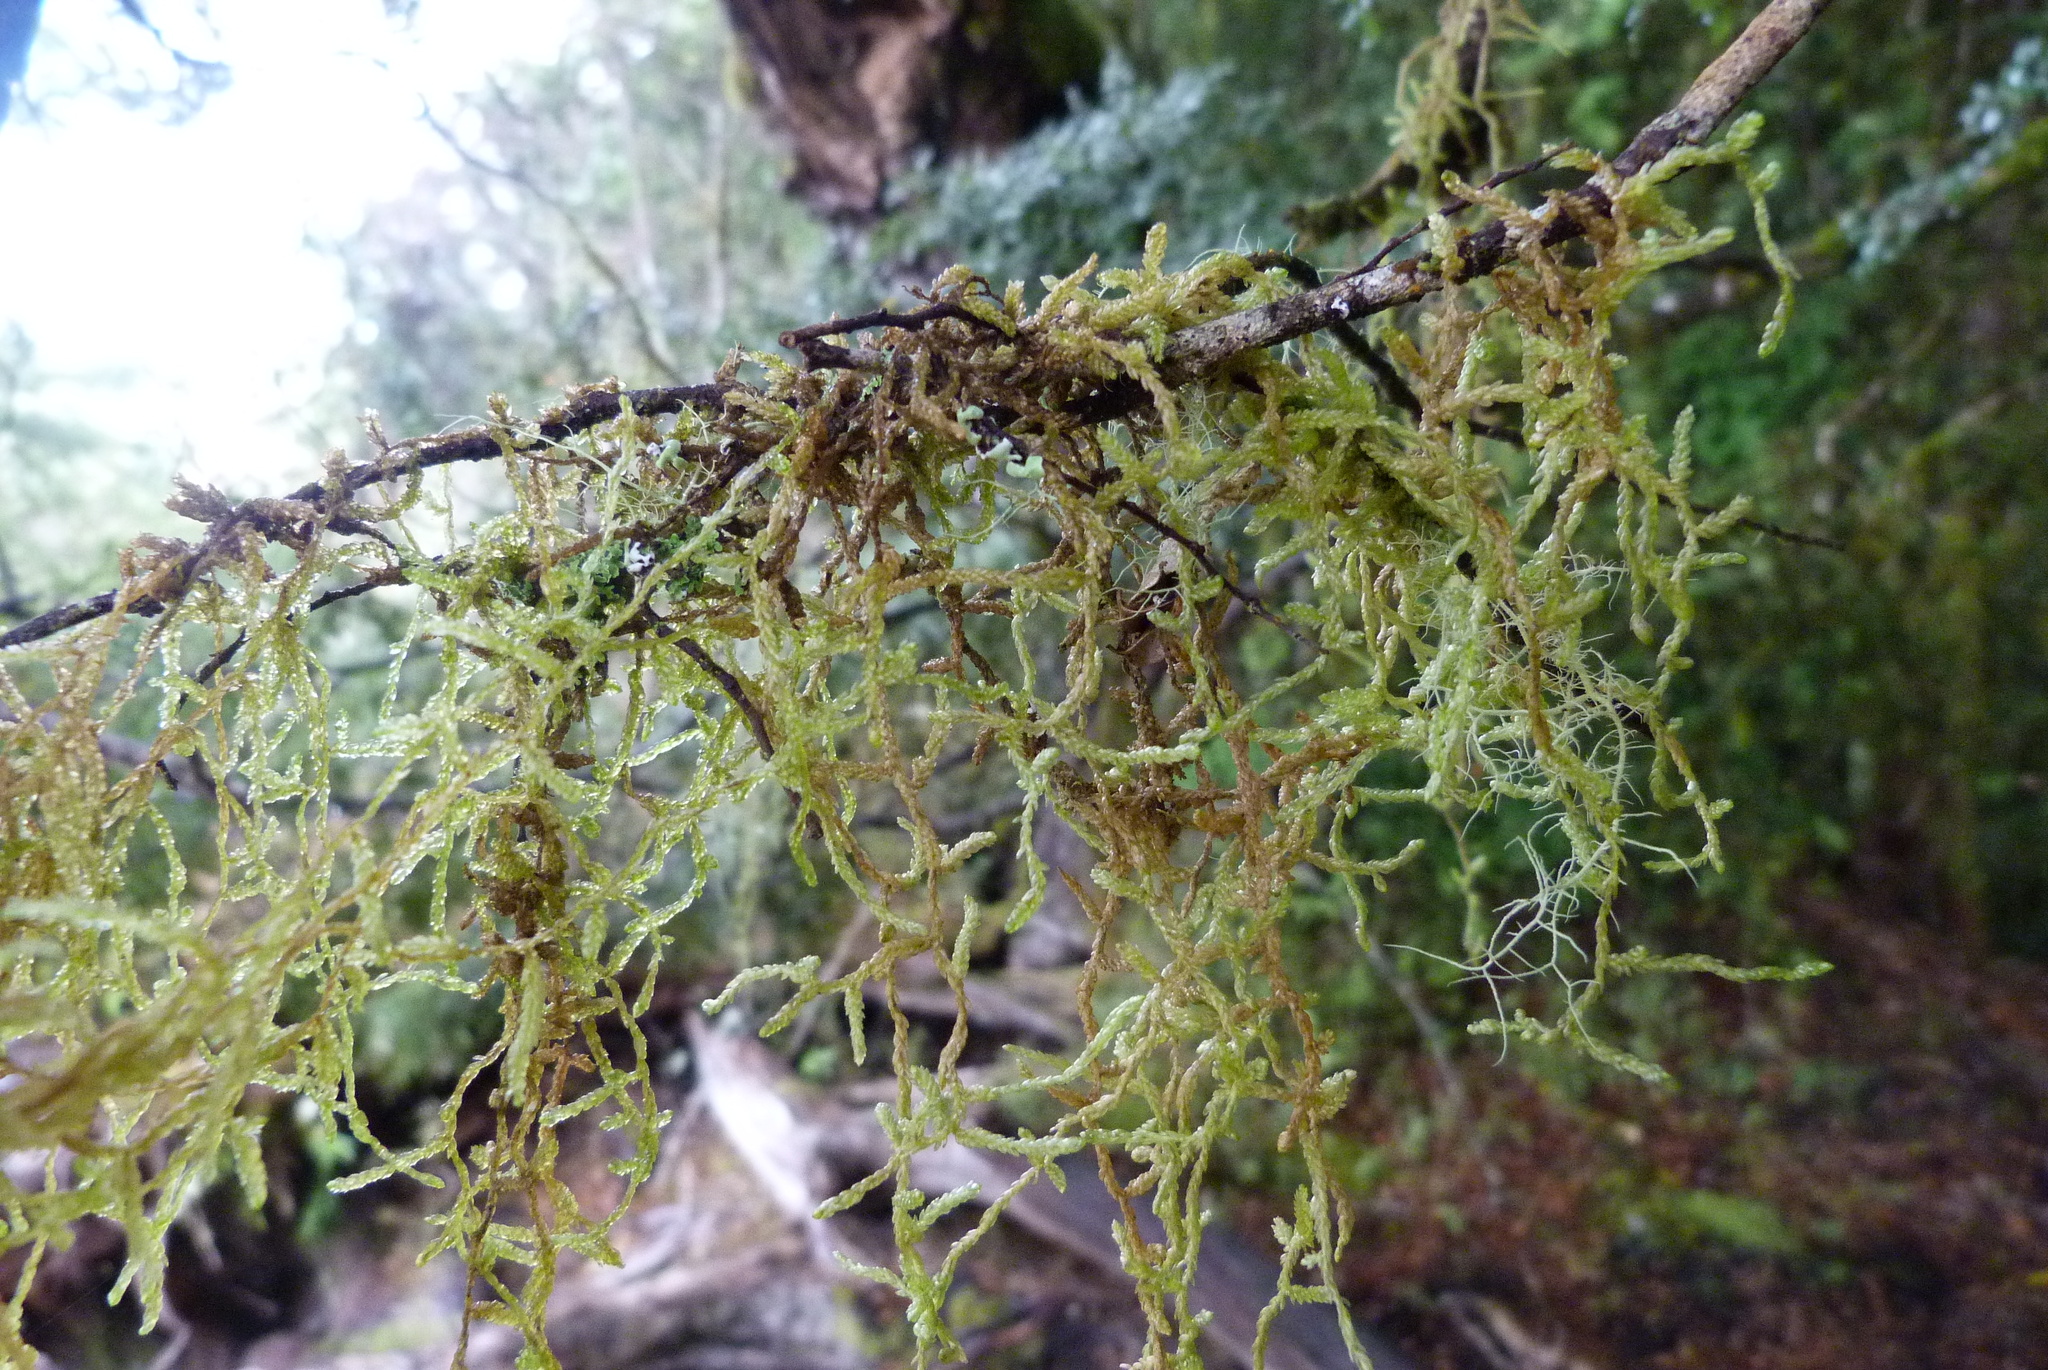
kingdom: Plantae
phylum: Bryophyta
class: Bryopsida
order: Hypnales
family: Lembophyllaceae
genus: Weymouthia
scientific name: Weymouthia mollis
